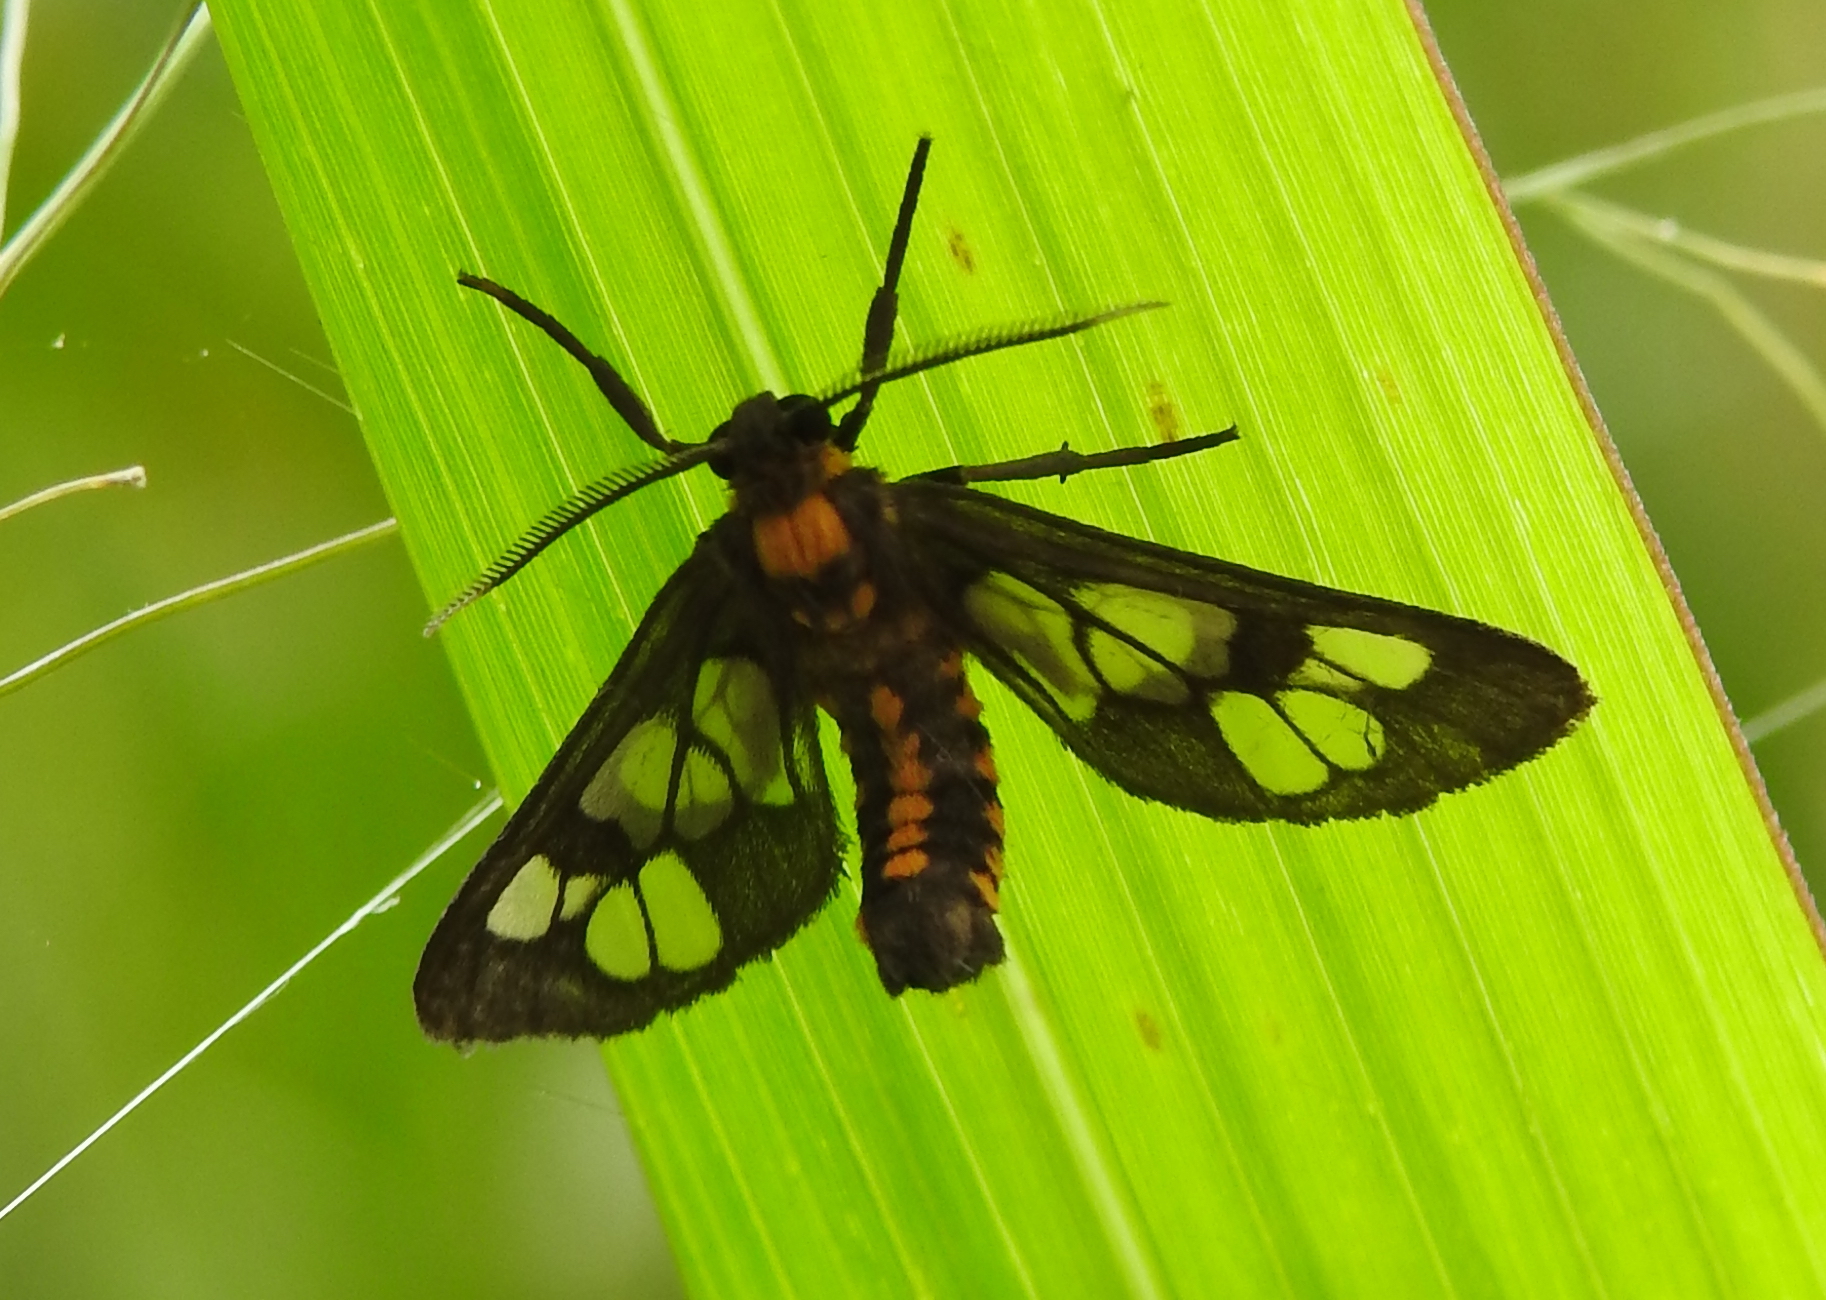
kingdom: Animalia
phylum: Arthropoda
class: Insecta
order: Lepidoptera
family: Erebidae
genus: Eressa
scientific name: Eressa confinis
